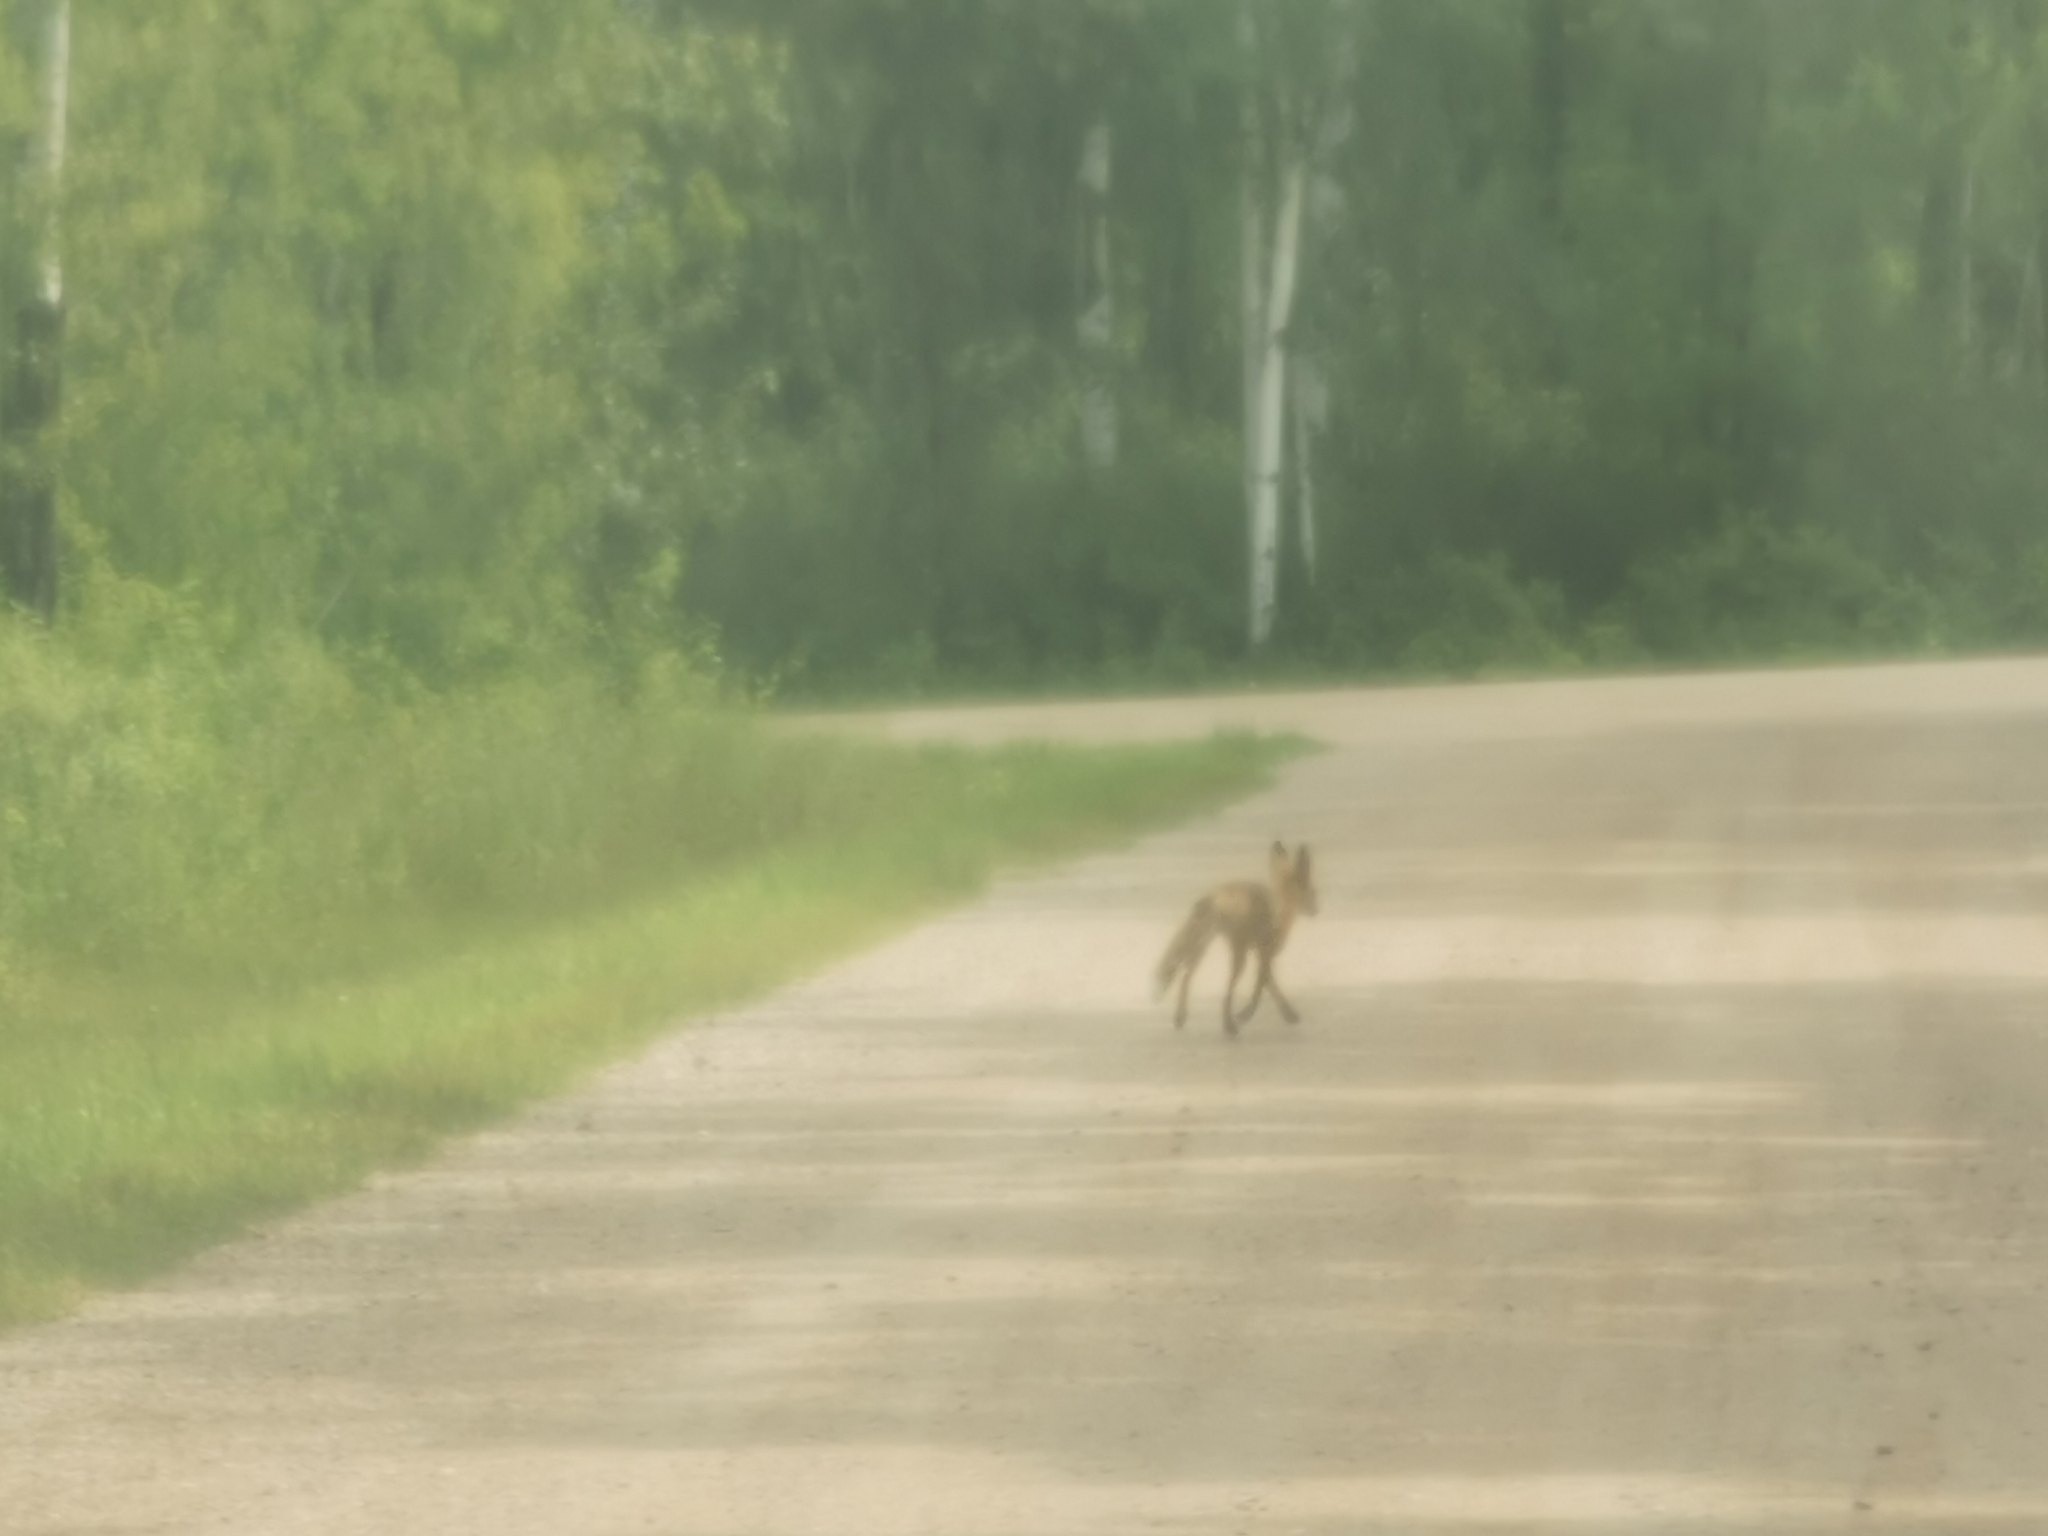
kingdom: Animalia
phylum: Chordata
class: Mammalia
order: Carnivora
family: Canidae
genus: Vulpes
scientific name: Vulpes vulpes
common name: Red fox
